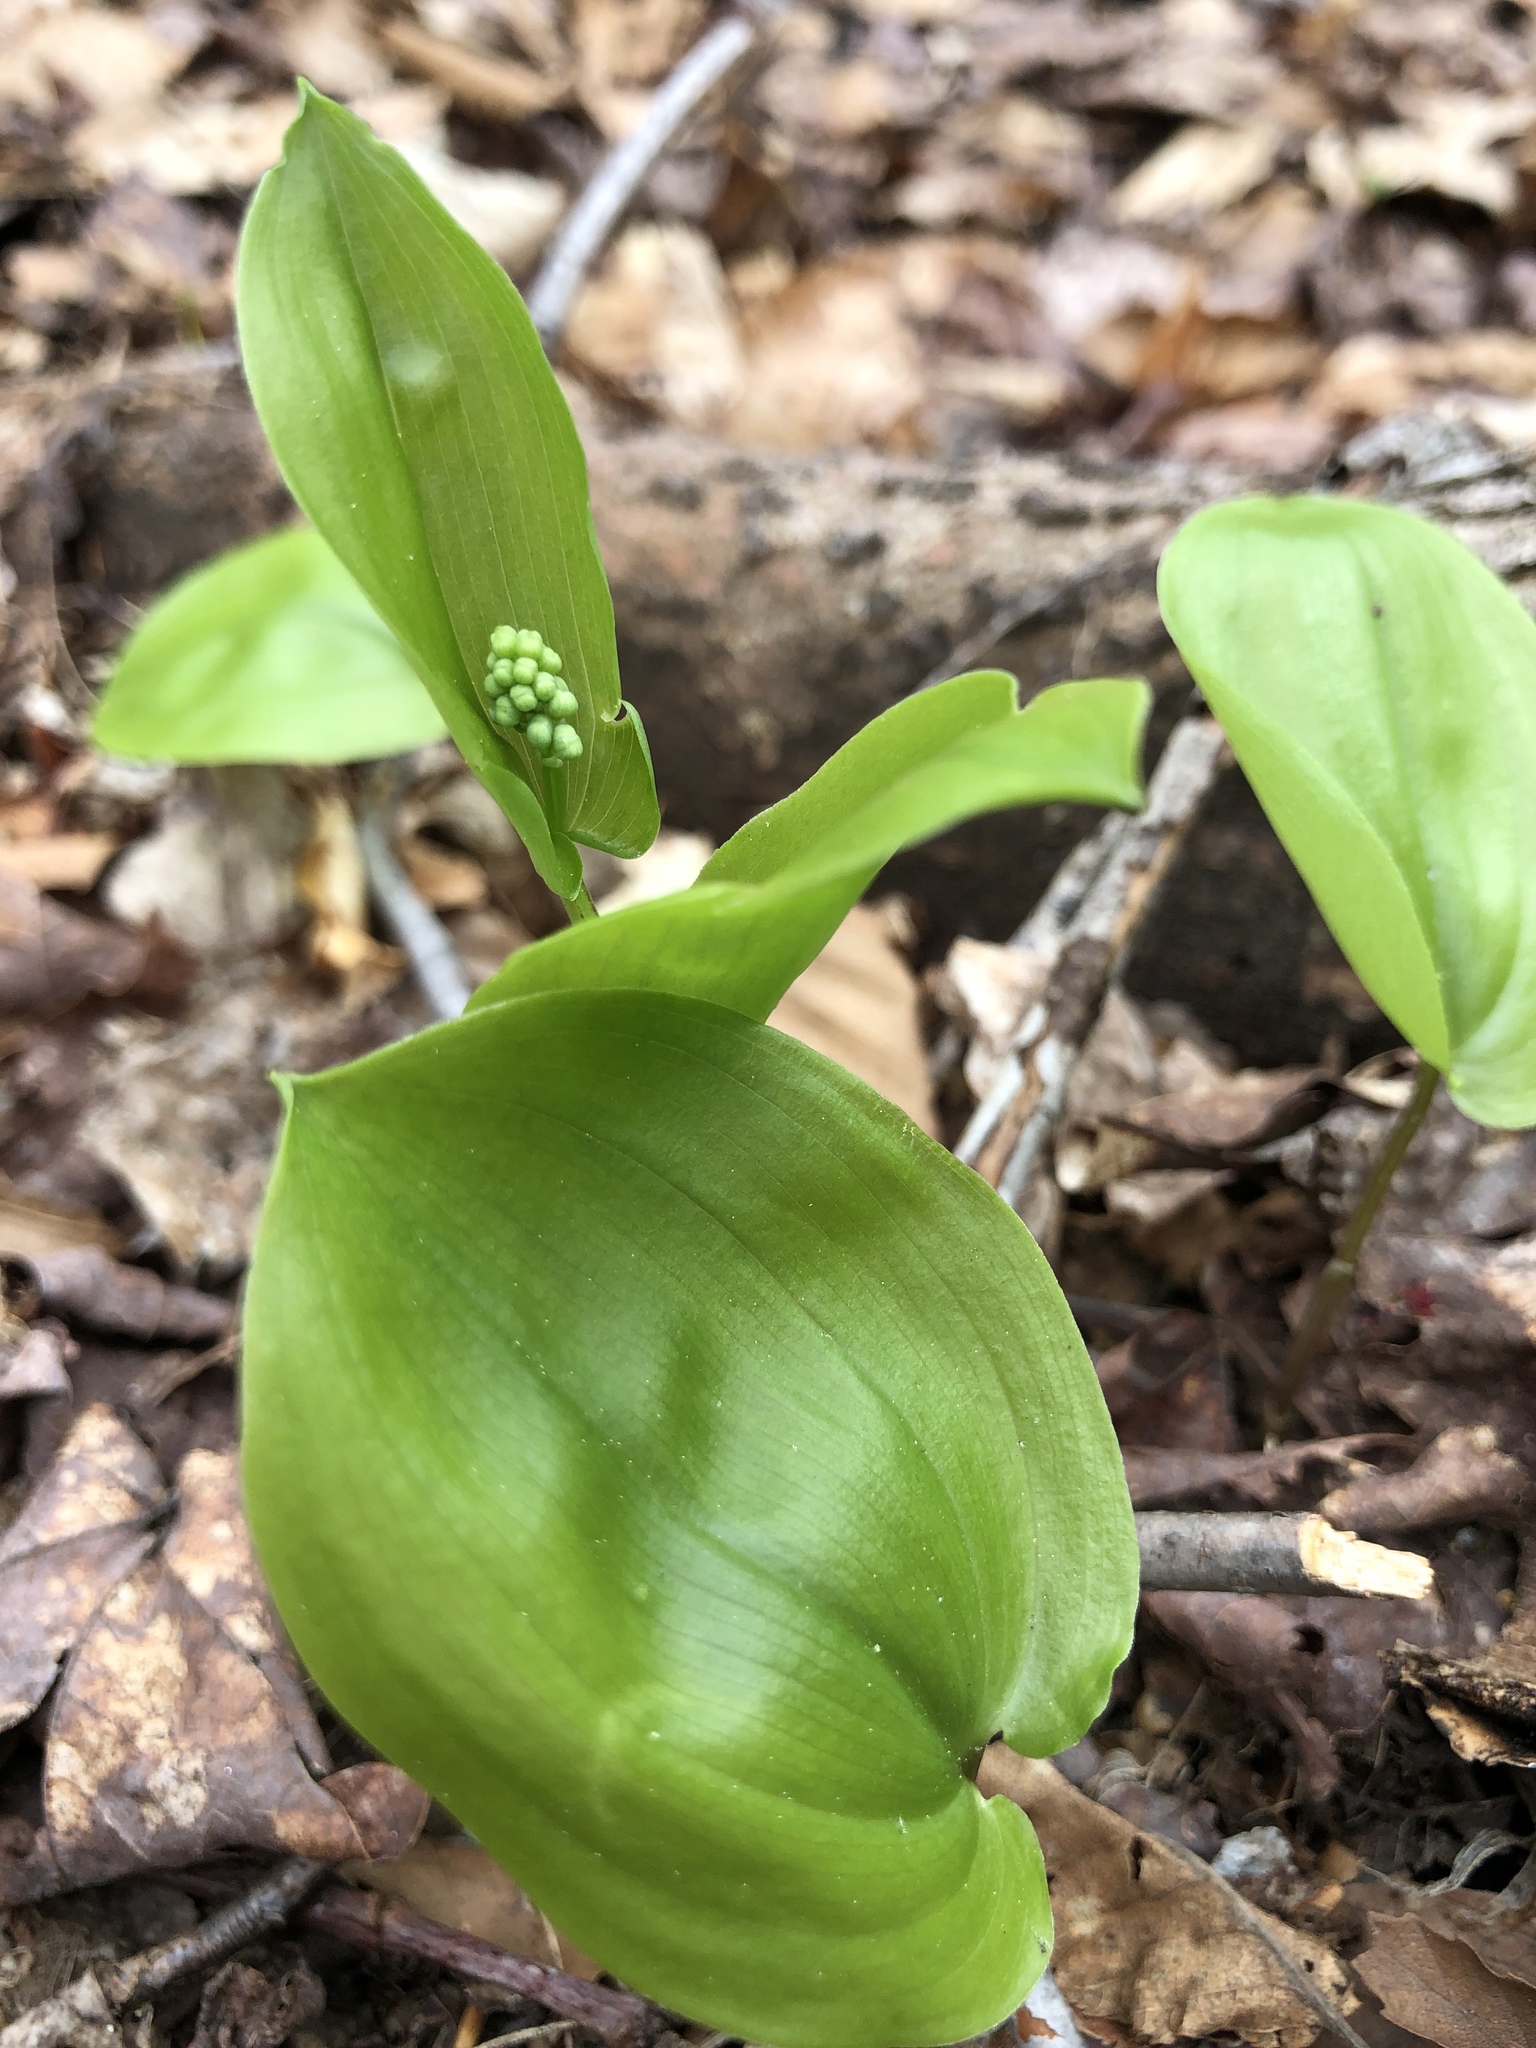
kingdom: Plantae
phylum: Tracheophyta
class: Liliopsida
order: Asparagales
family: Asparagaceae
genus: Maianthemum
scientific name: Maianthemum canadense
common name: False lily-of-the-valley
